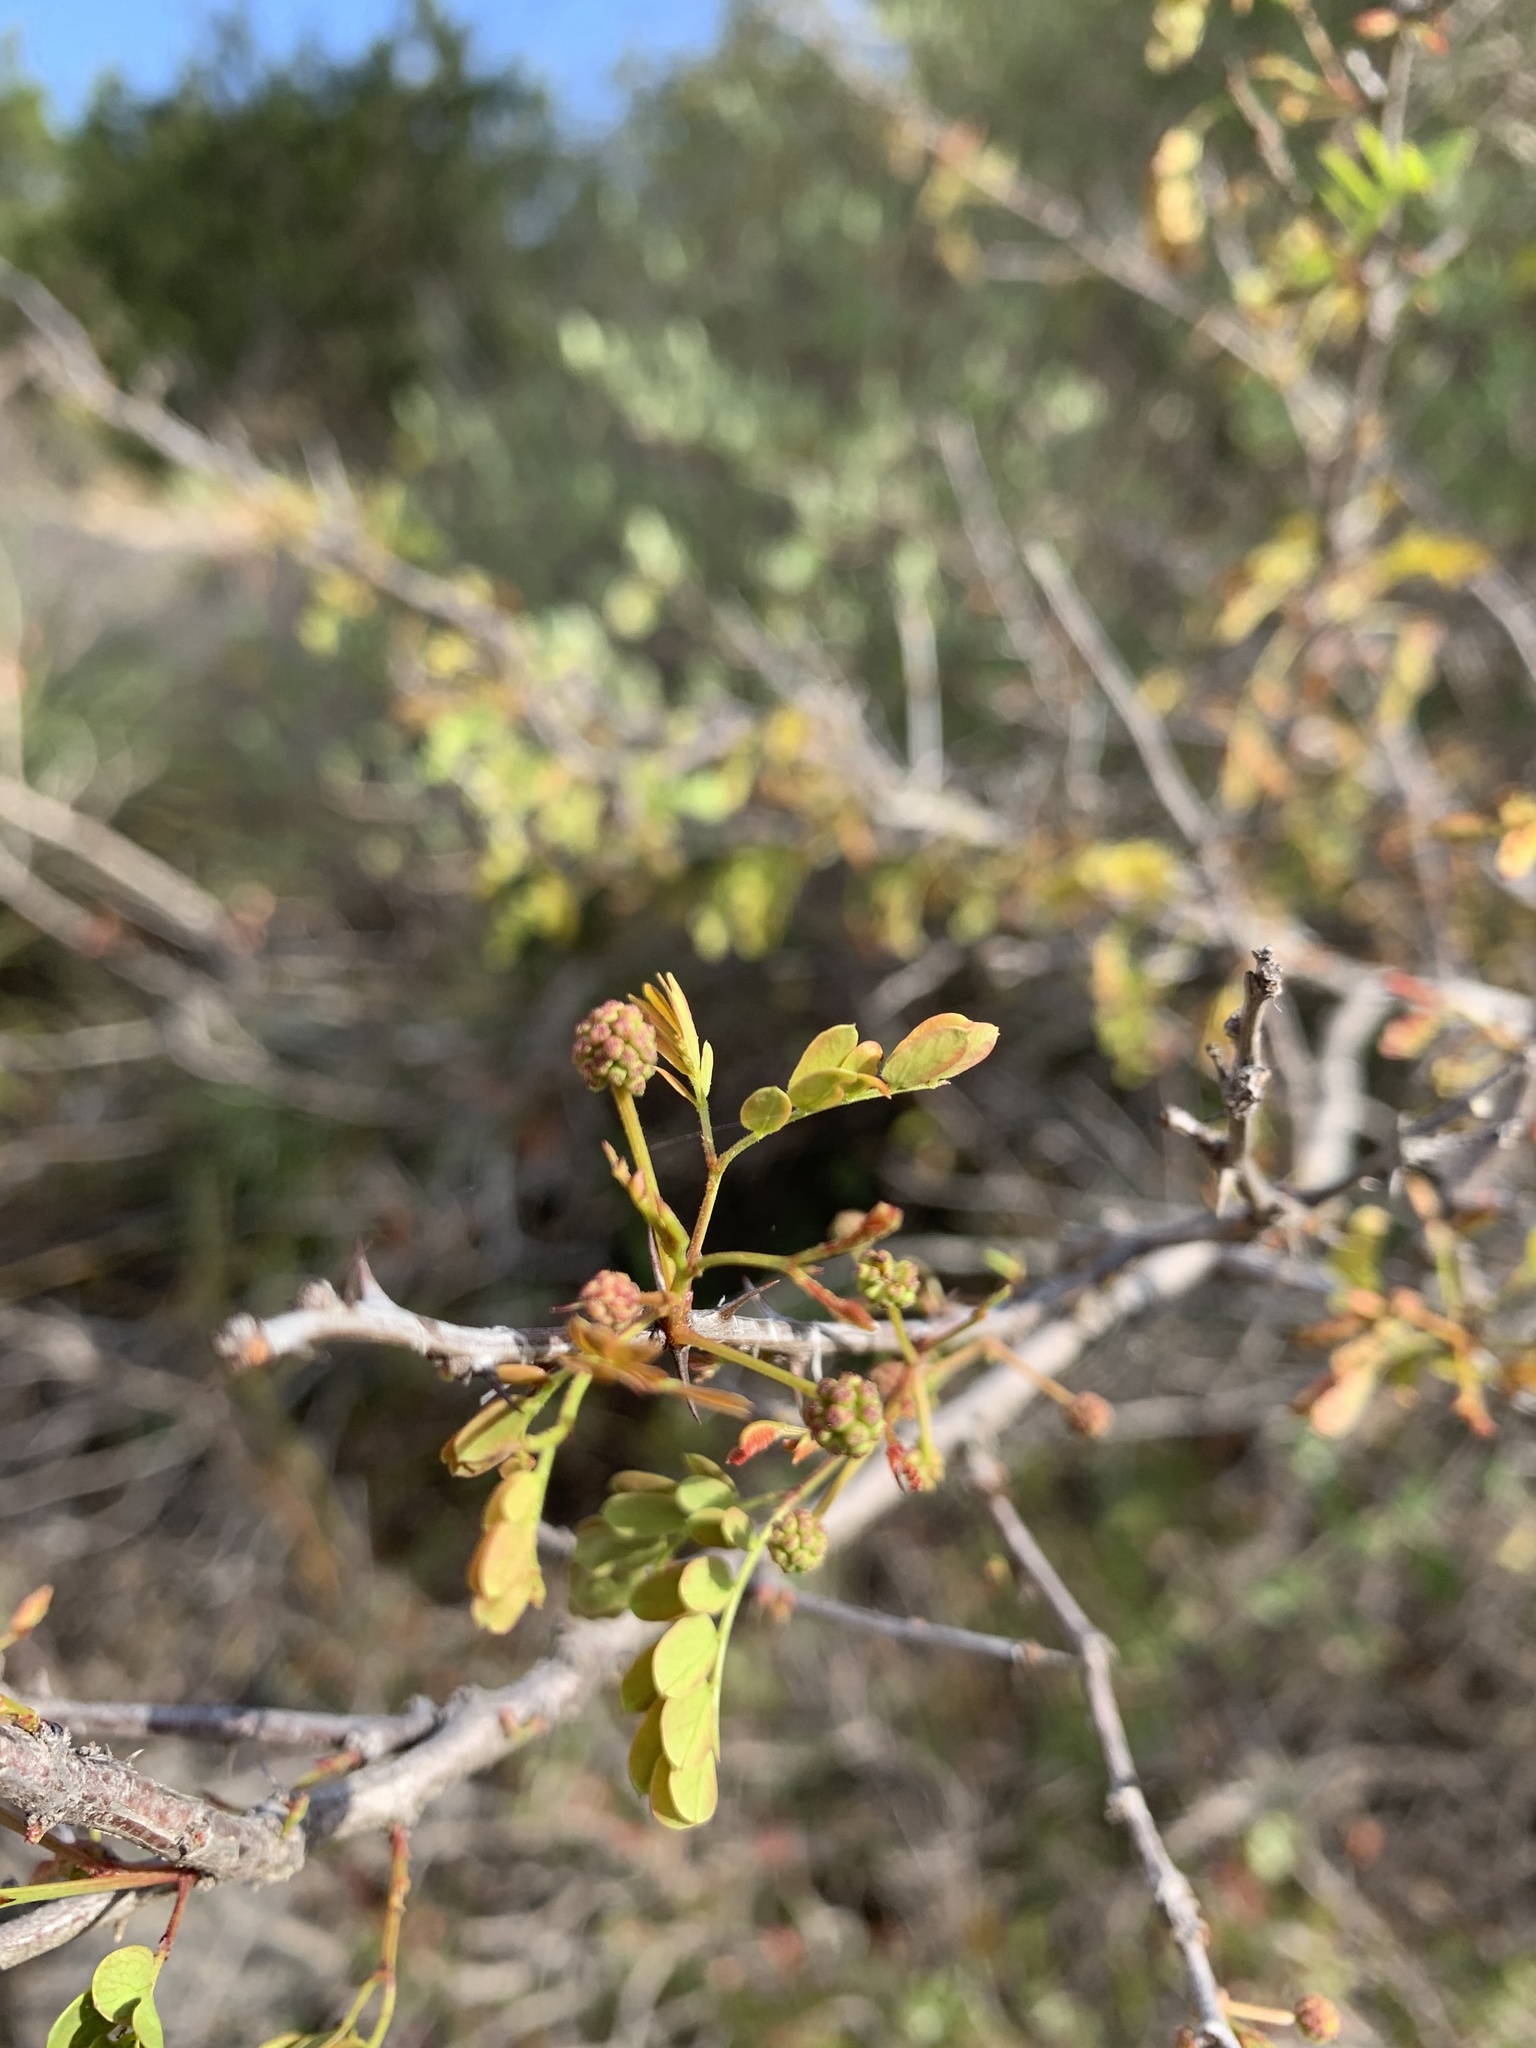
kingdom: Plantae
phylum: Tracheophyta
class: Magnoliopsida
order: Fabales
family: Fabaceae
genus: Senegalia
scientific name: Senegalia roemeriana
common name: Roemer's acacia
